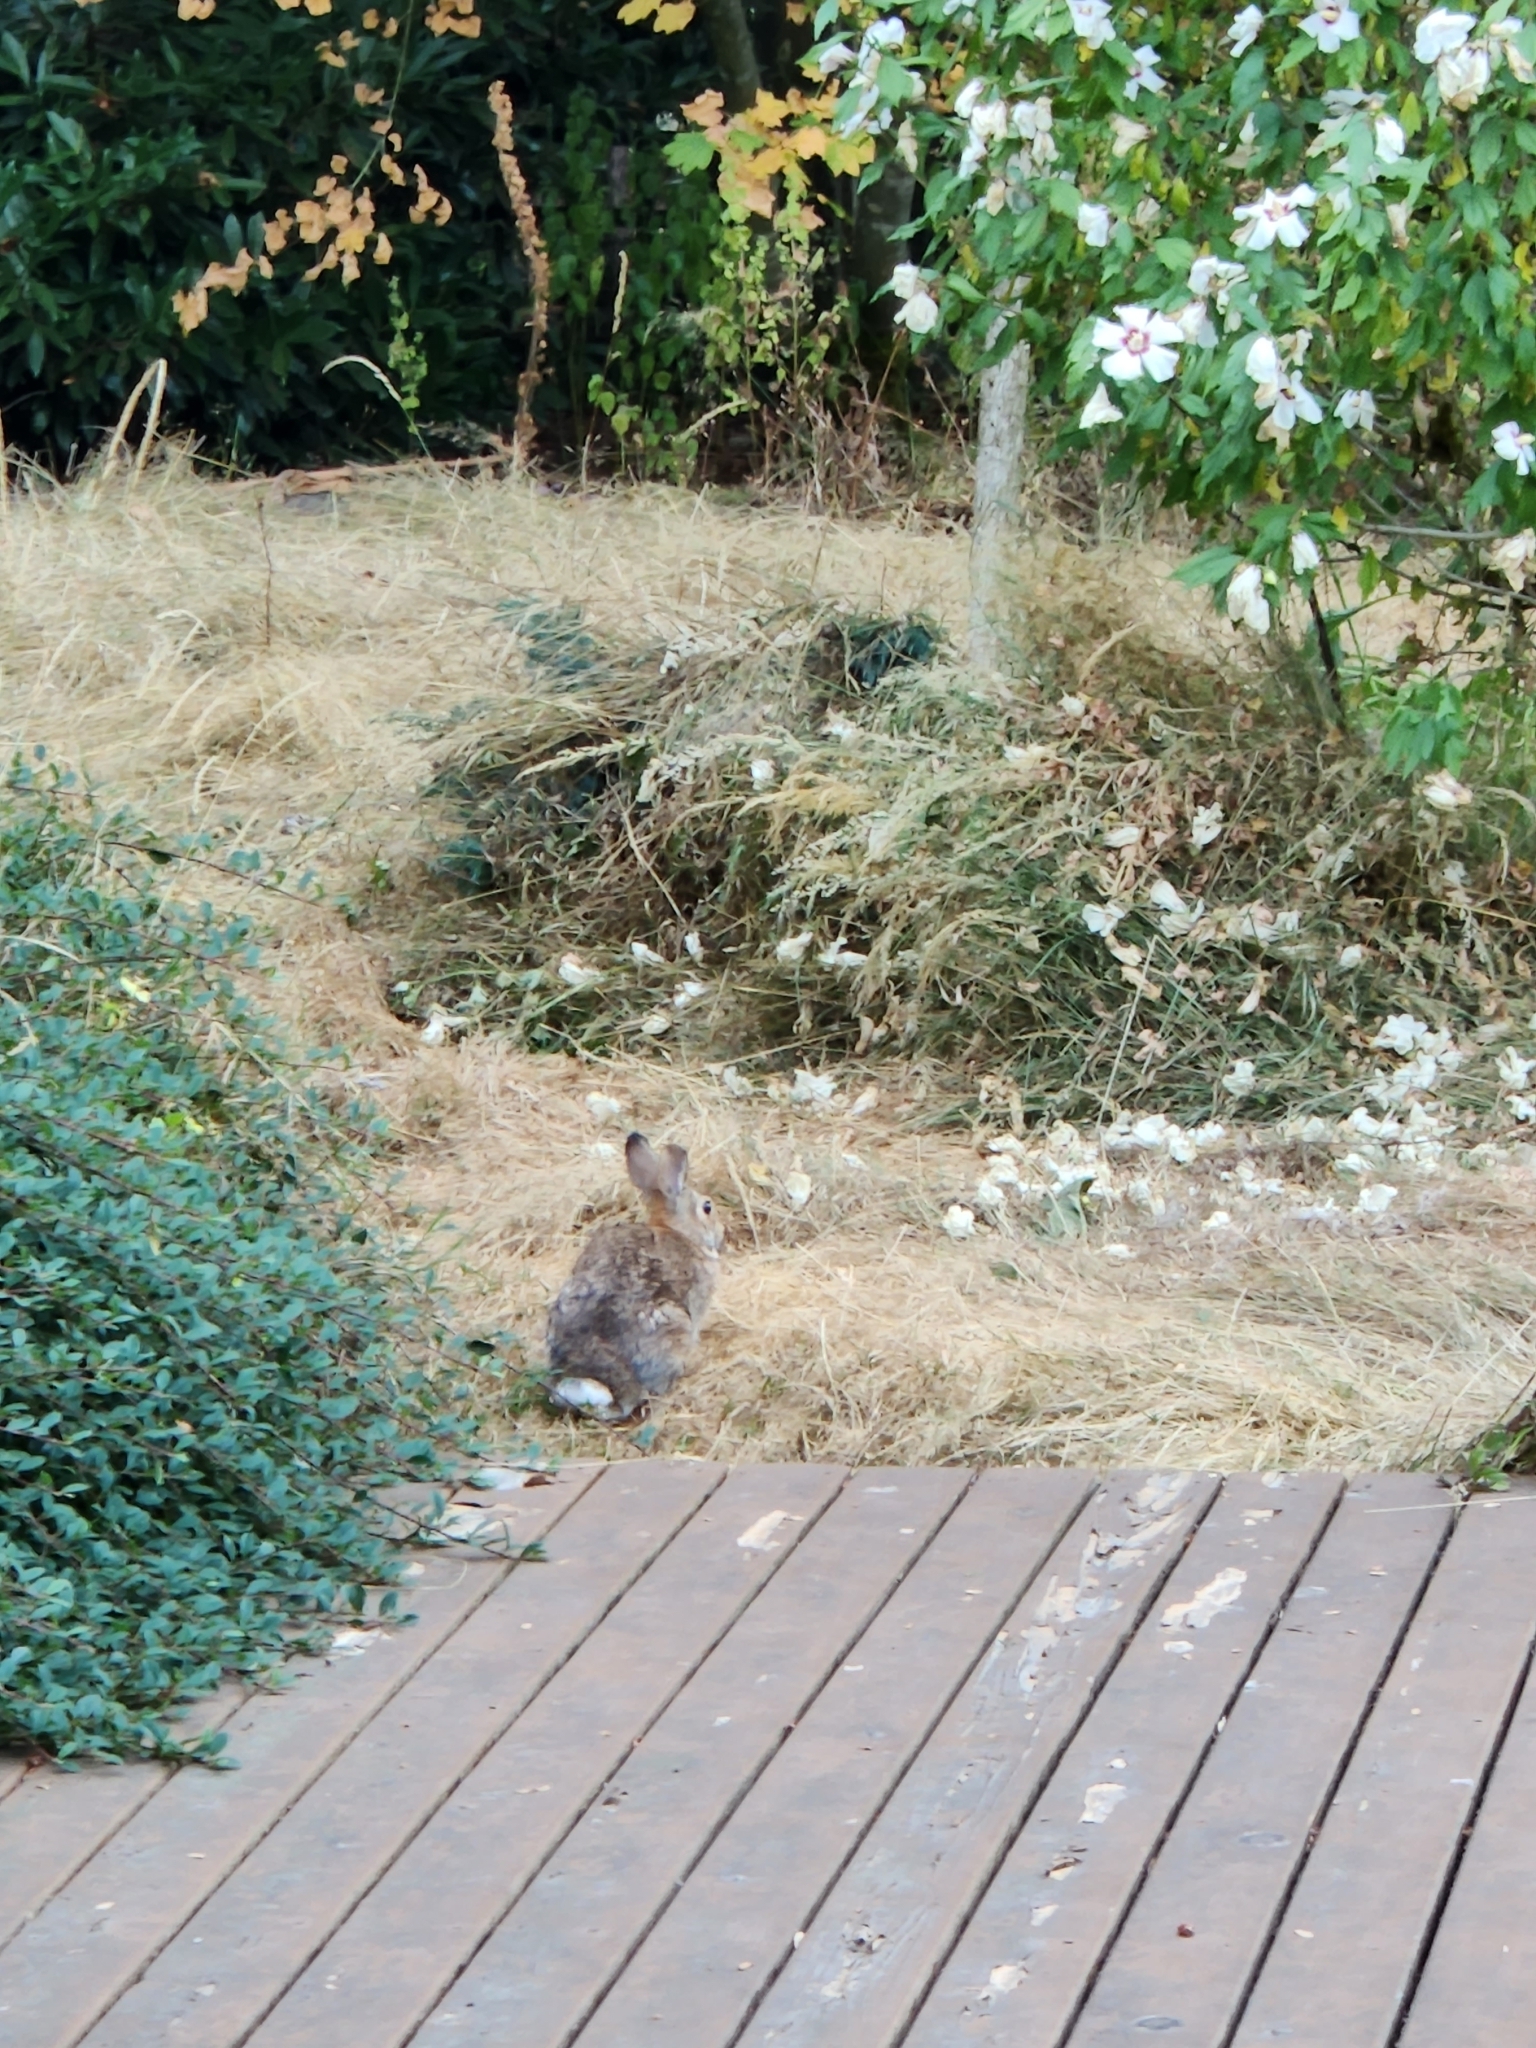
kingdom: Animalia
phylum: Chordata
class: Mammalia
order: Lagomorpha
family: Leporidae
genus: Sylvilagus
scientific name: Sylvilagus floridanus
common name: Eastern cottontail
